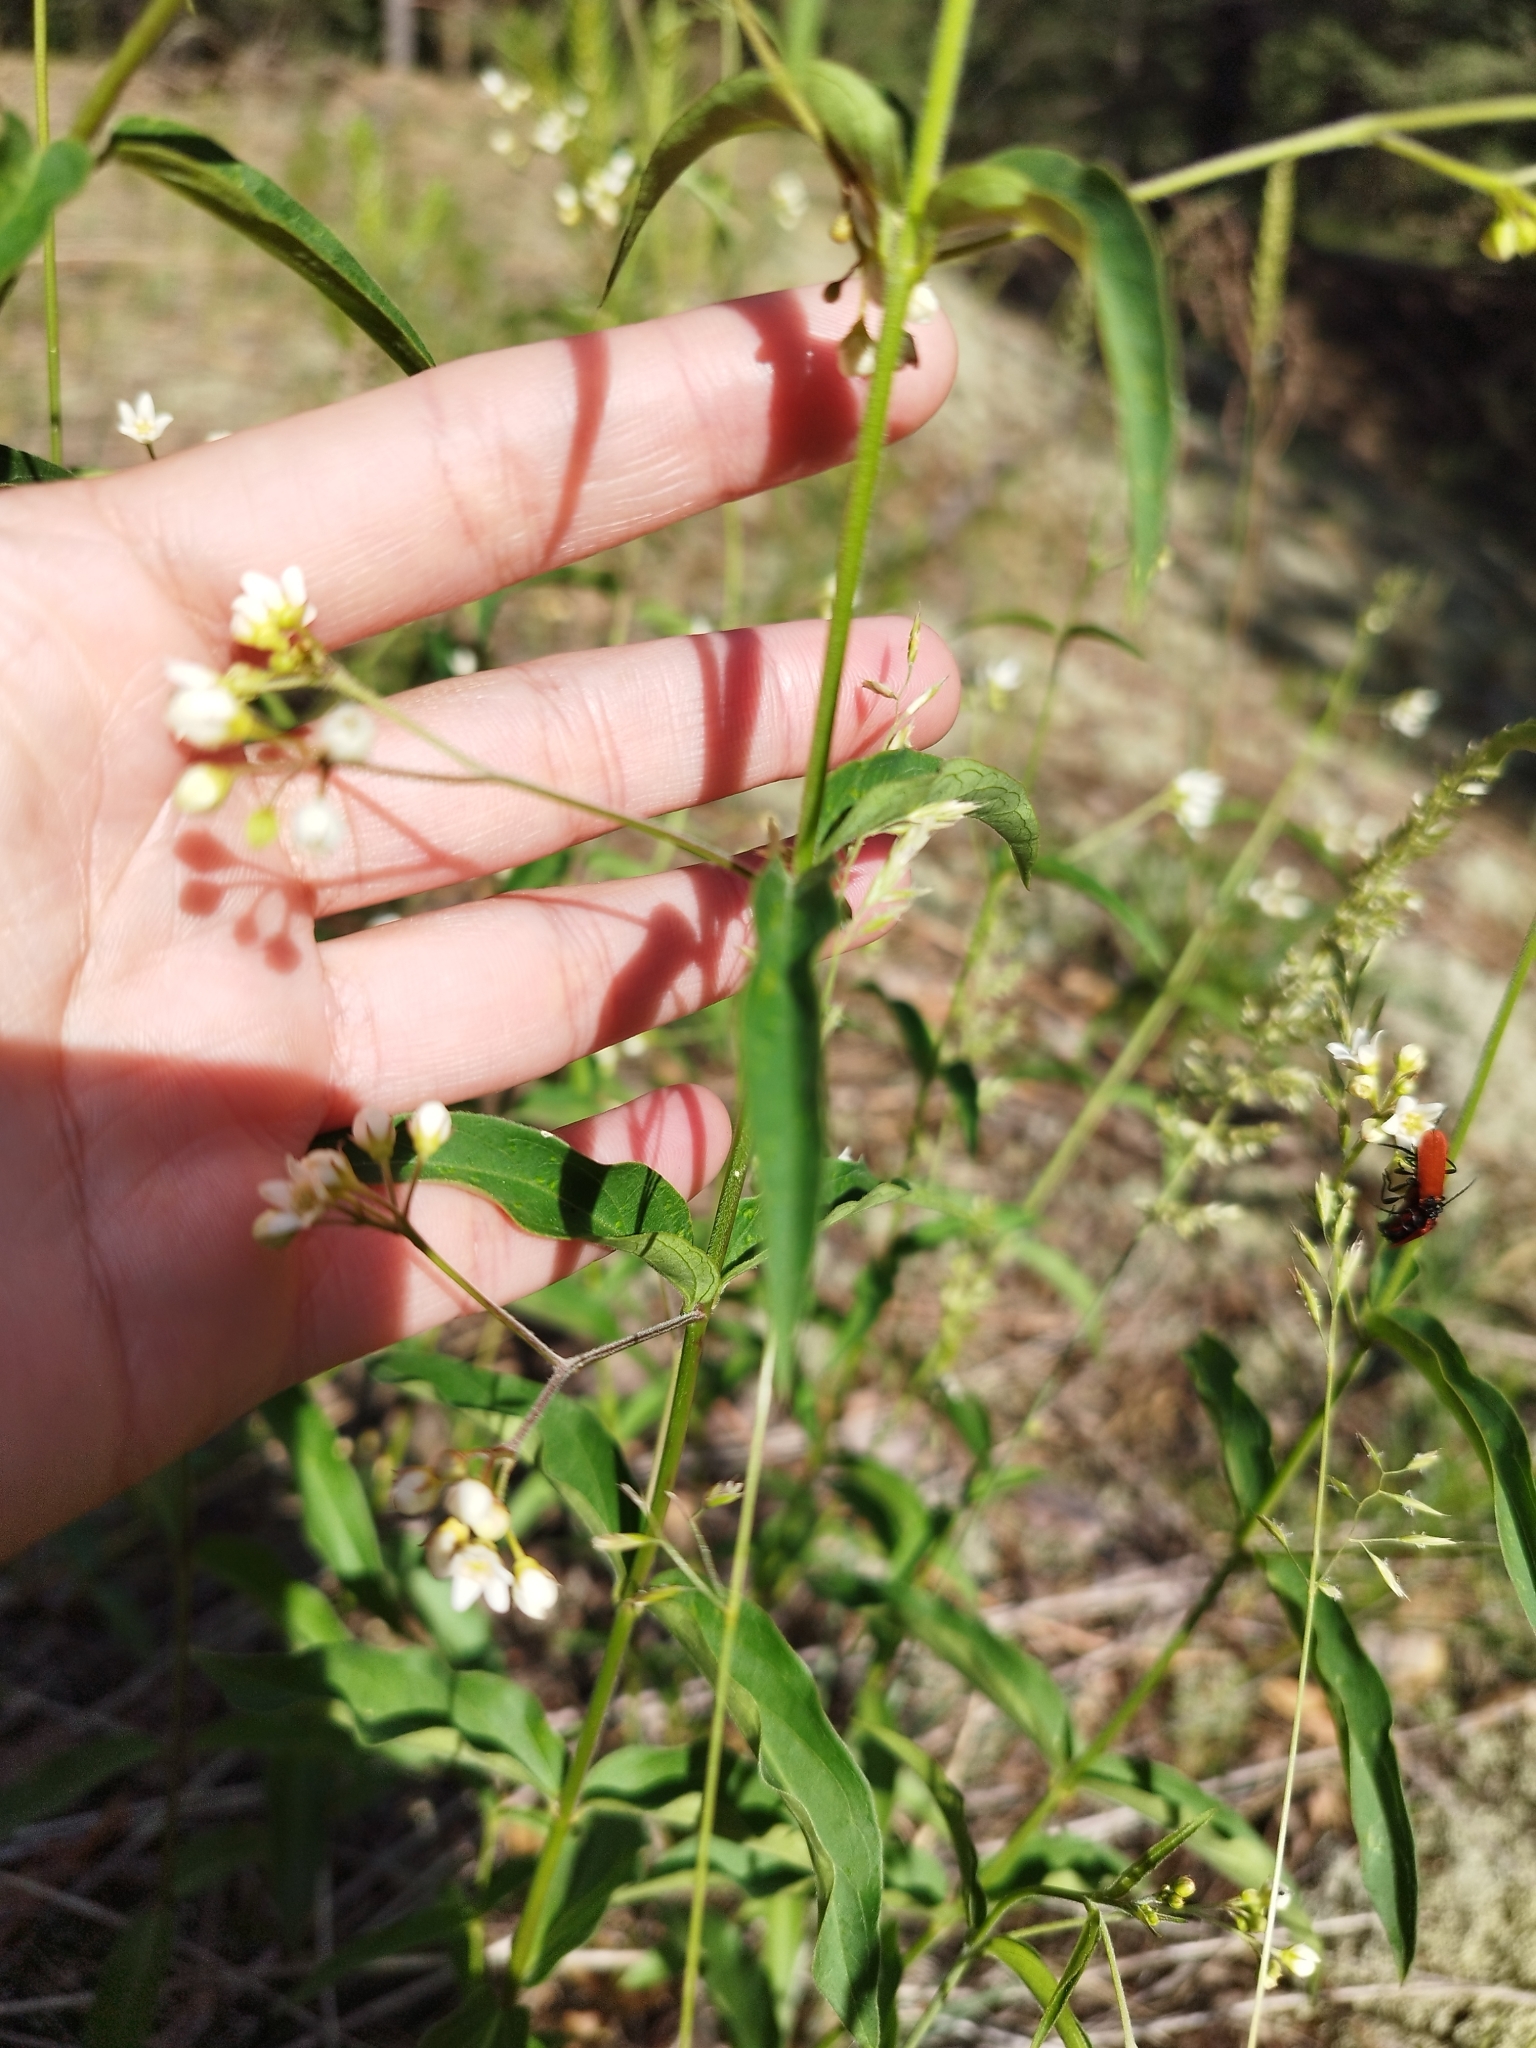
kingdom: Plantae
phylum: Tracheophyta
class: Magnoliopsida
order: Gentianales
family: Apocynaceae
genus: Vincetoxicum
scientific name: Vincetoxicum hirundinaria
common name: White swallowwort
